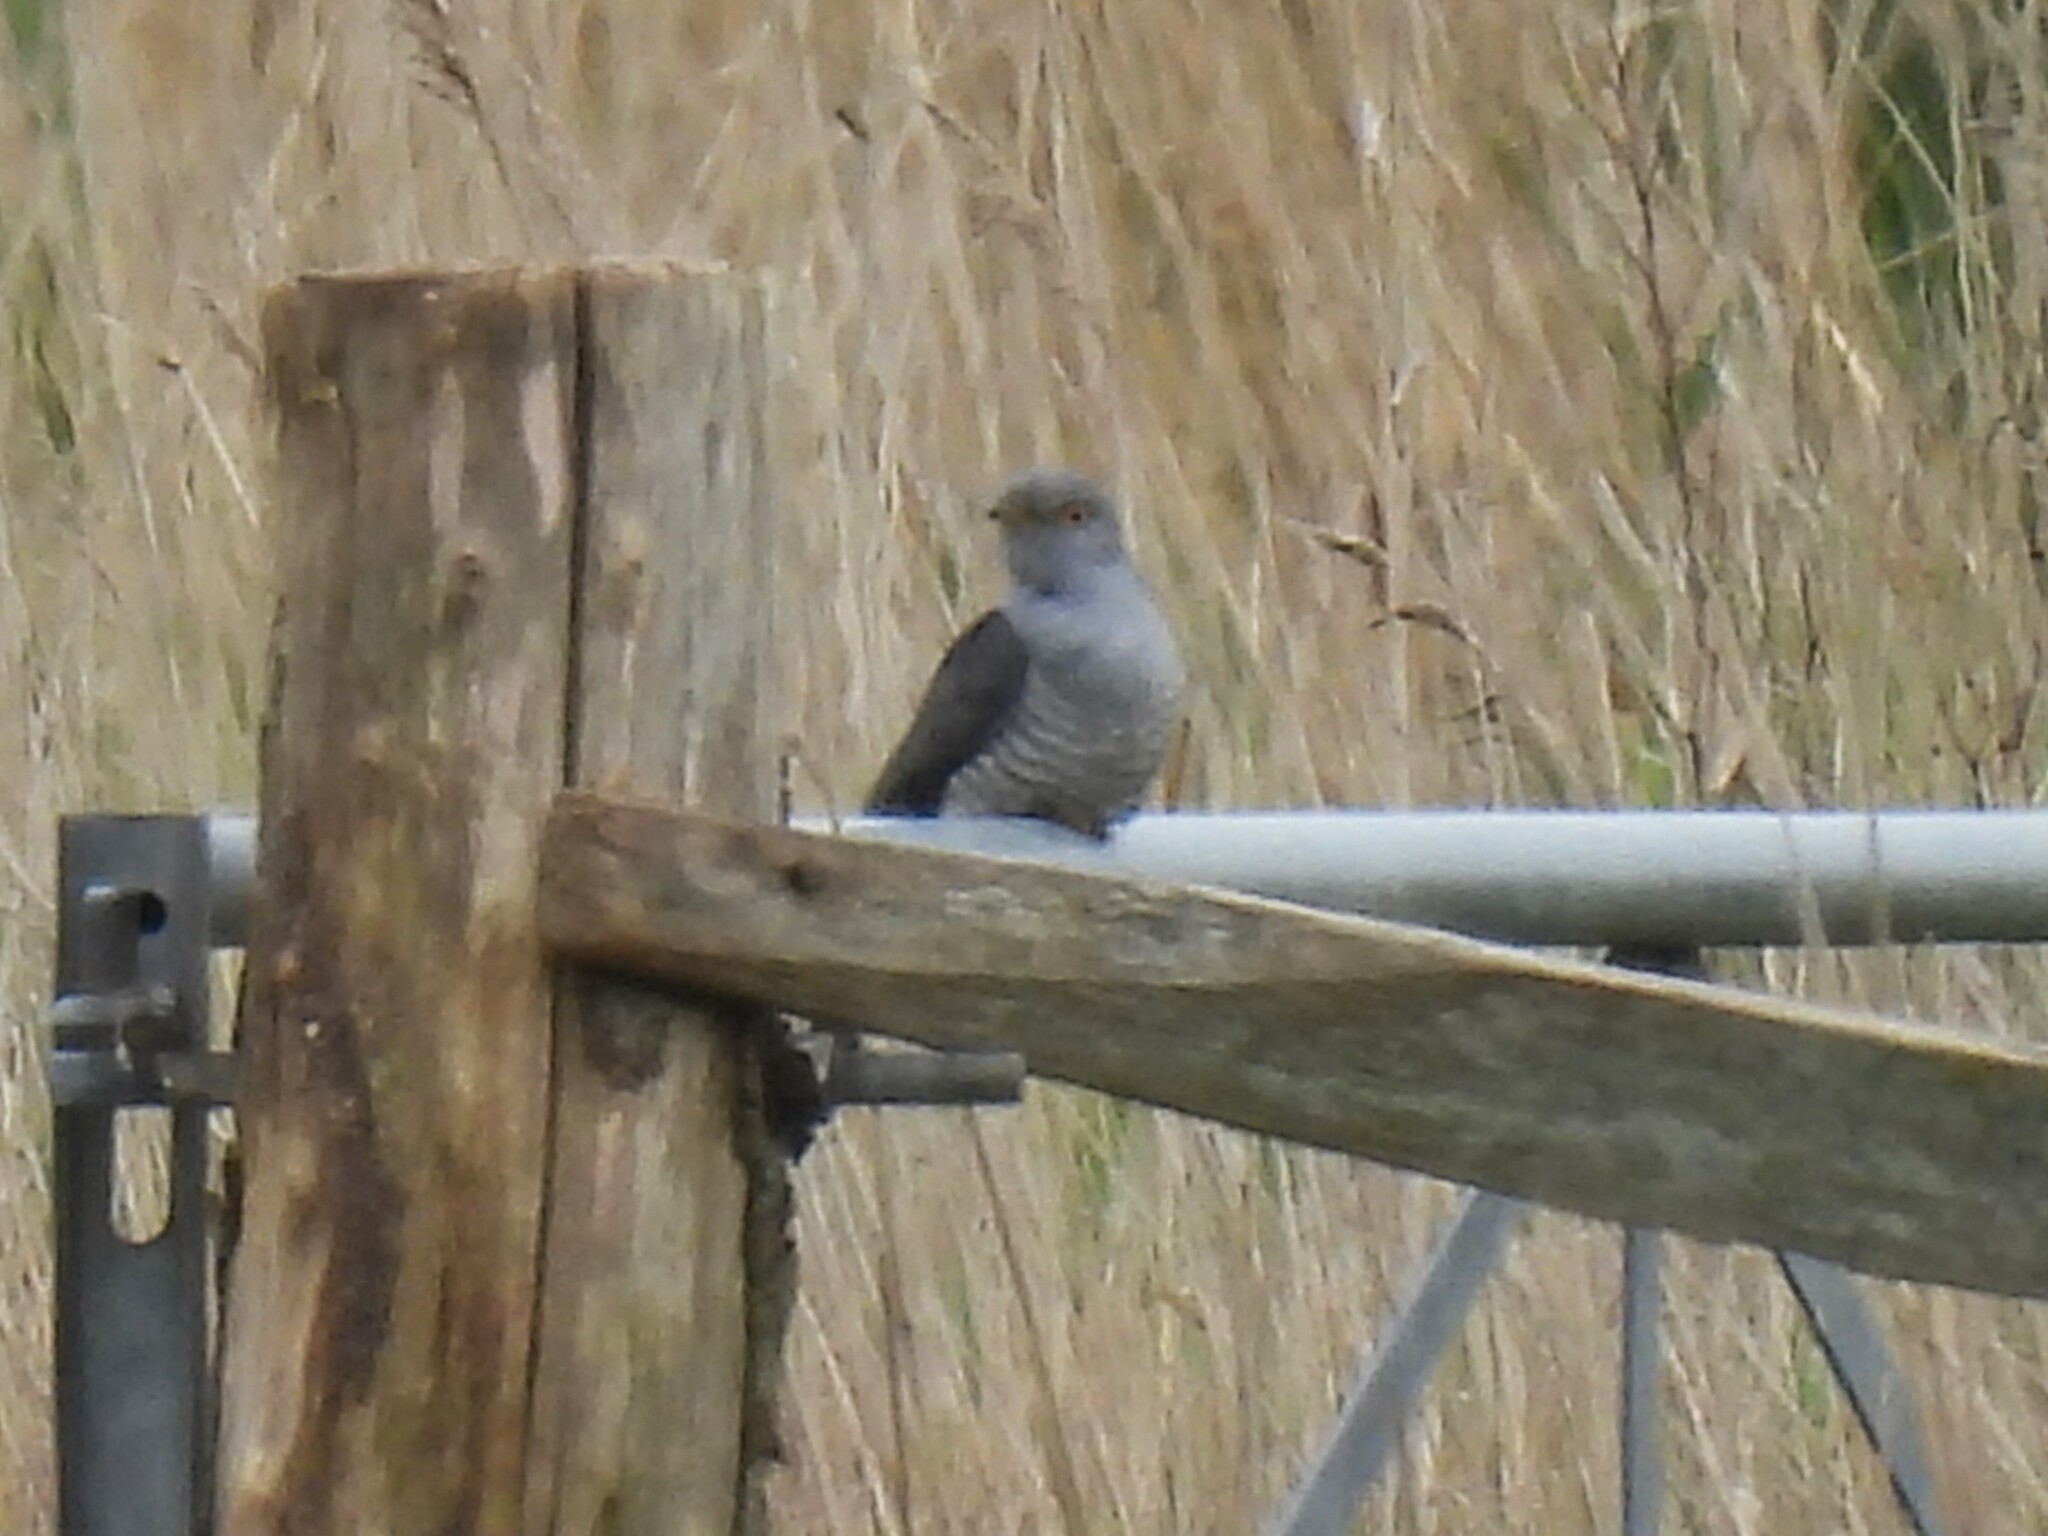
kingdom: Animalia
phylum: Chordata
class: Aves
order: Cuculiformes
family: Cuculidae
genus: Cuculus
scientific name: Cuculus canorus
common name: Common cuckoo
